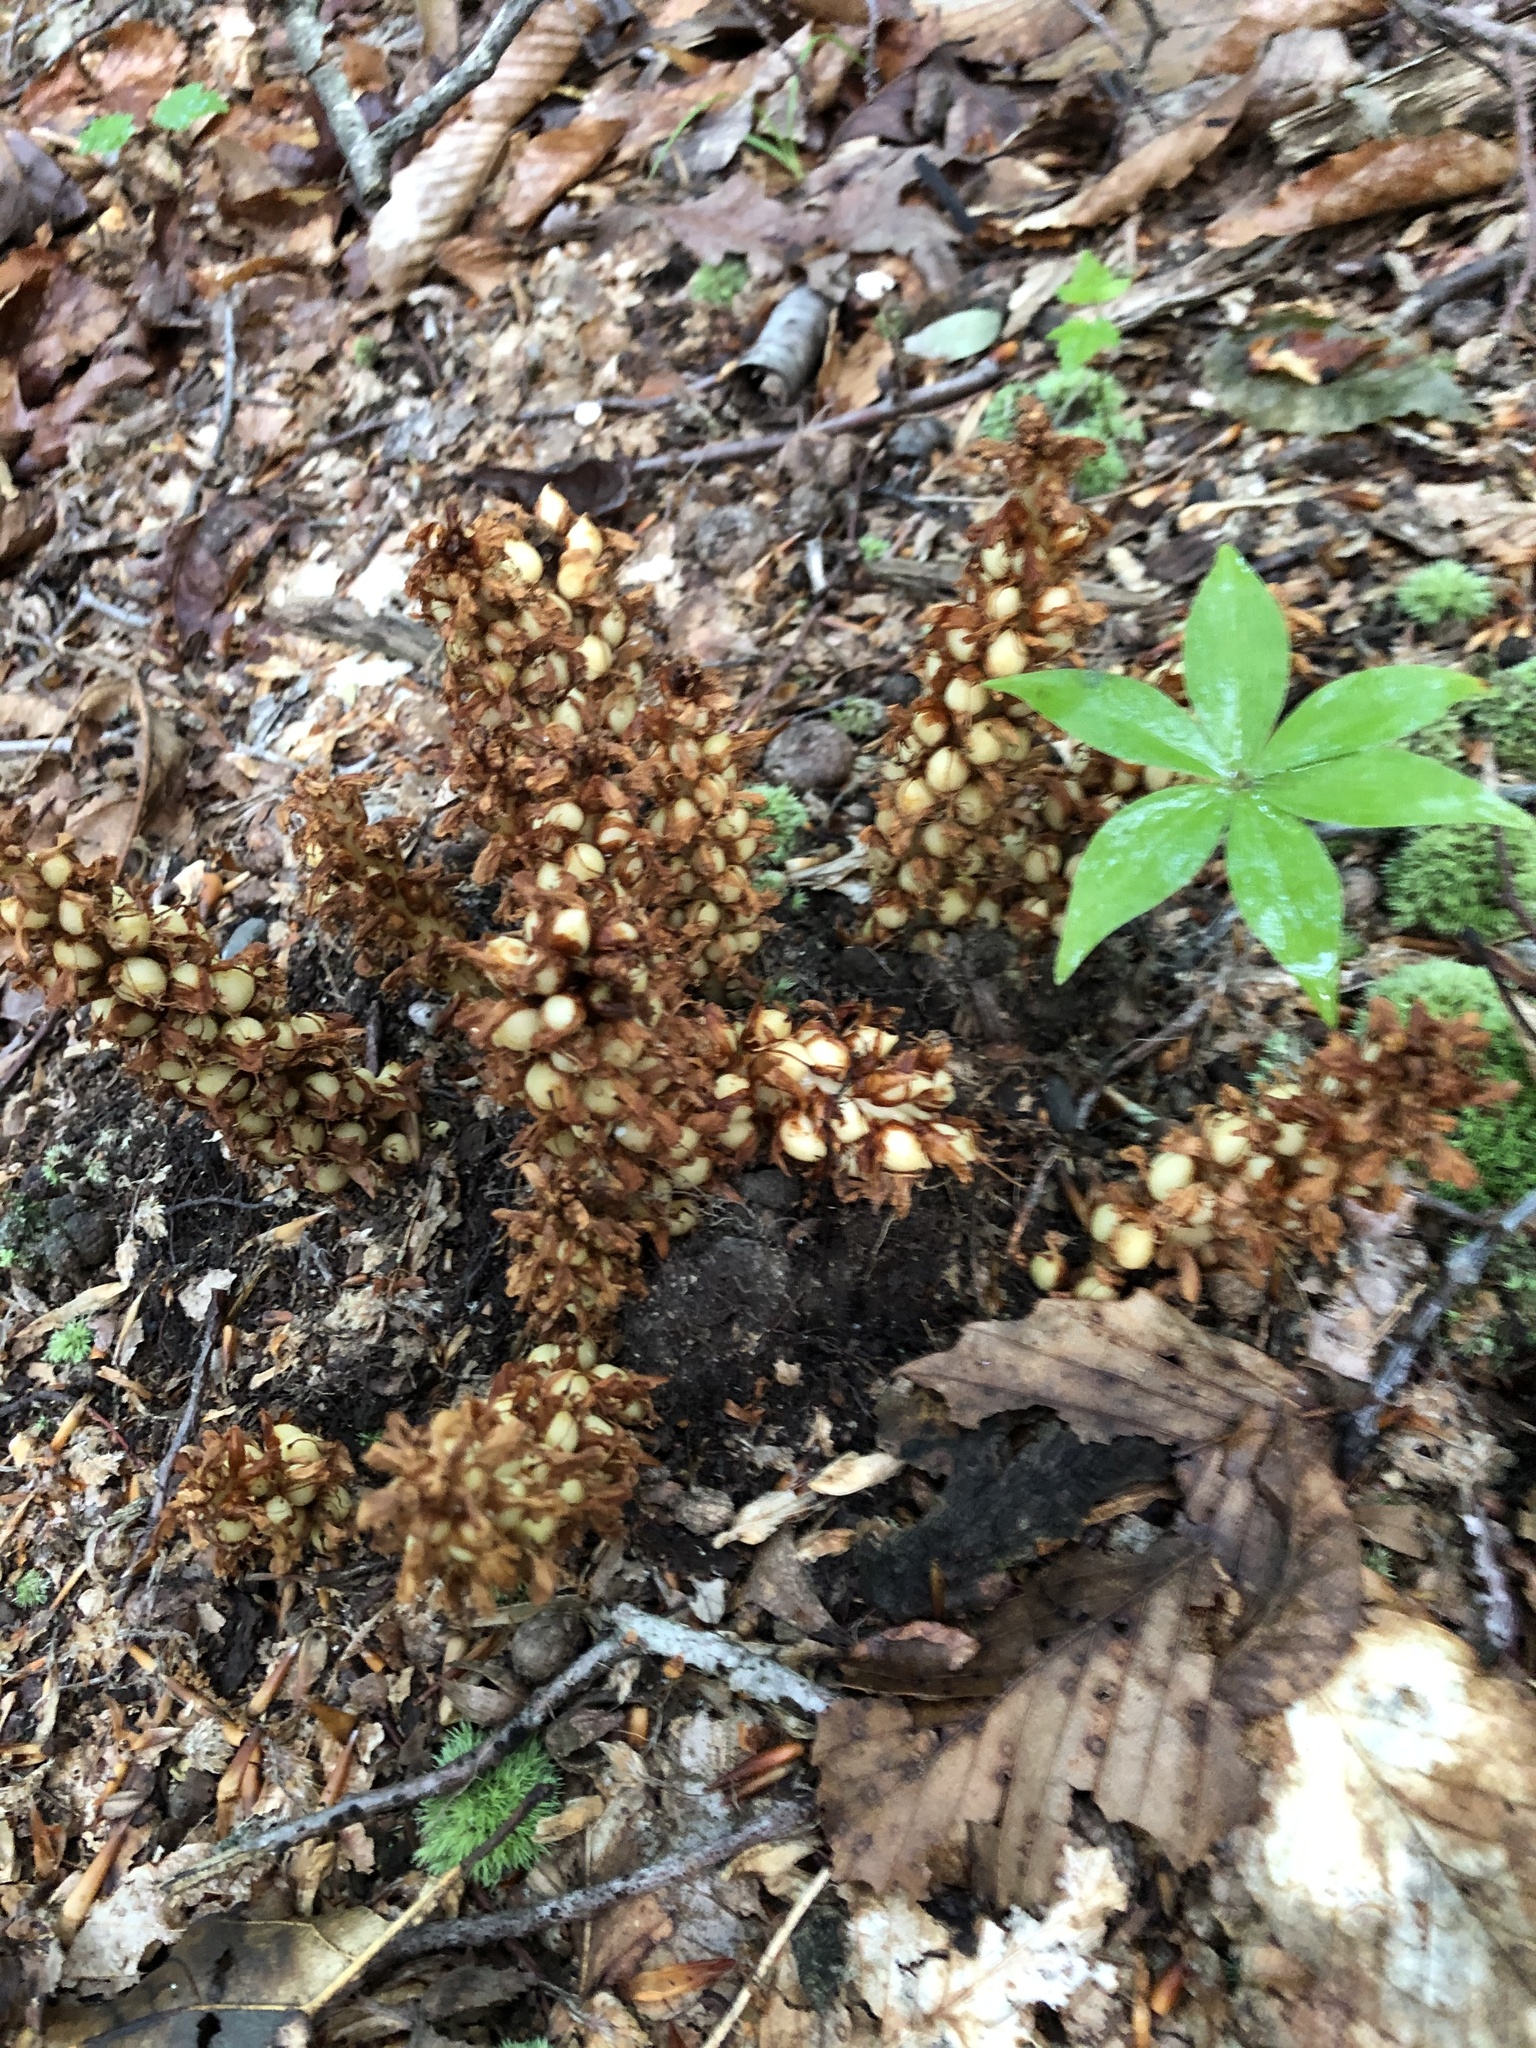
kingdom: Plantae
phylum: Tracheophyta
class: Magnoliopsida
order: Lamiales
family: Orobanchaceae
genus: Conopholis
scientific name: Conopholis americana
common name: American cancer-root
